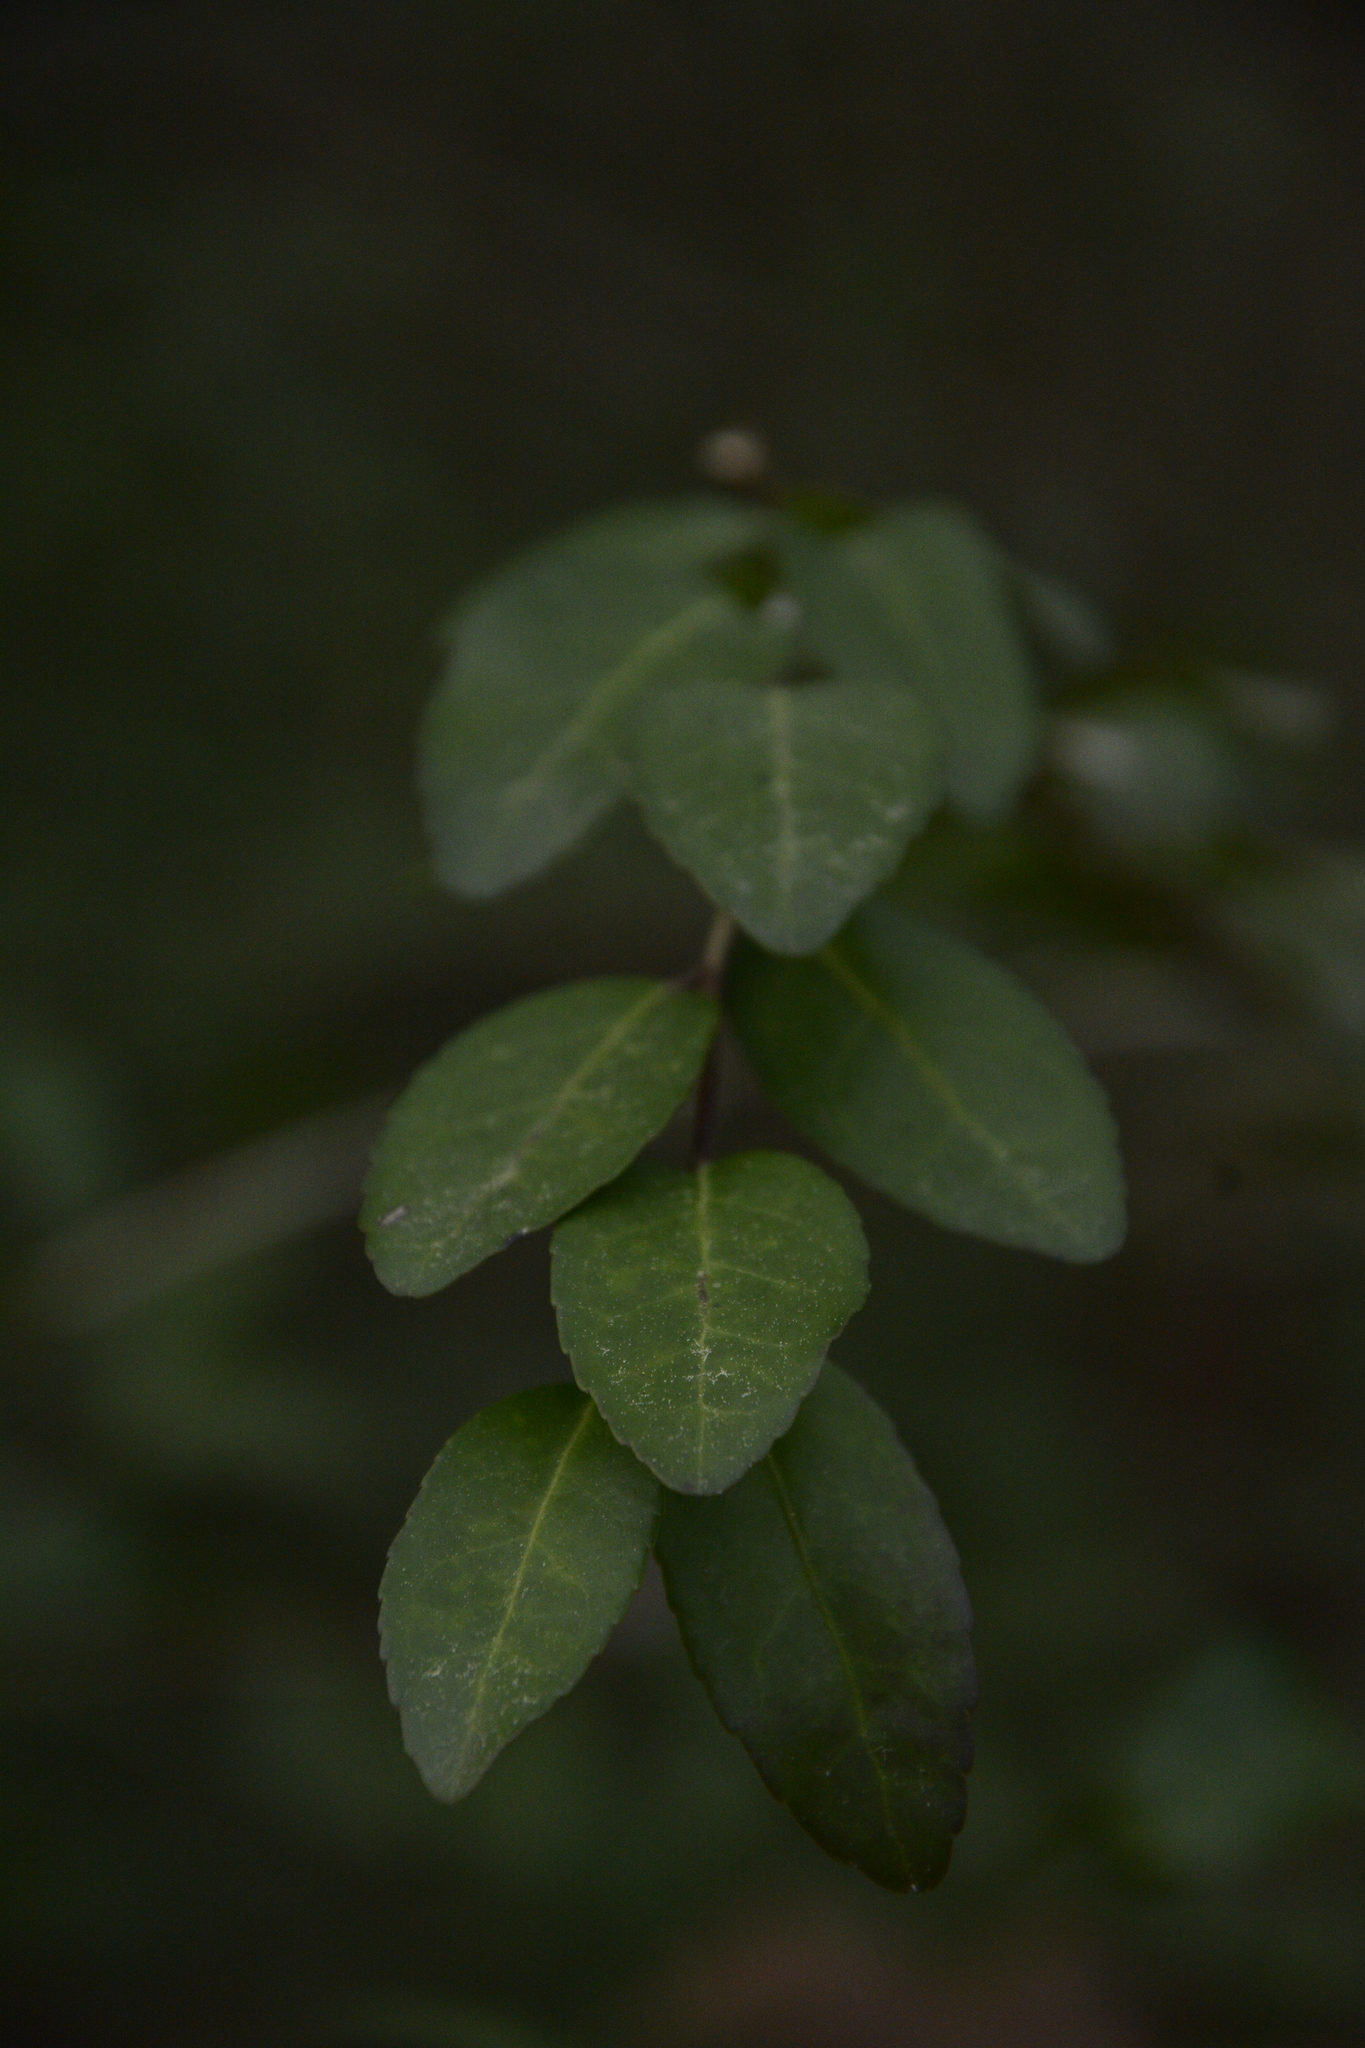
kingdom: Plantae
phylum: Tracheophyta
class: Magnoliopsida
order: Aquifoliales
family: Aquifoliaceae
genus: Ilex
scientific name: Ilex vomitoria
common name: Yaupon holly
